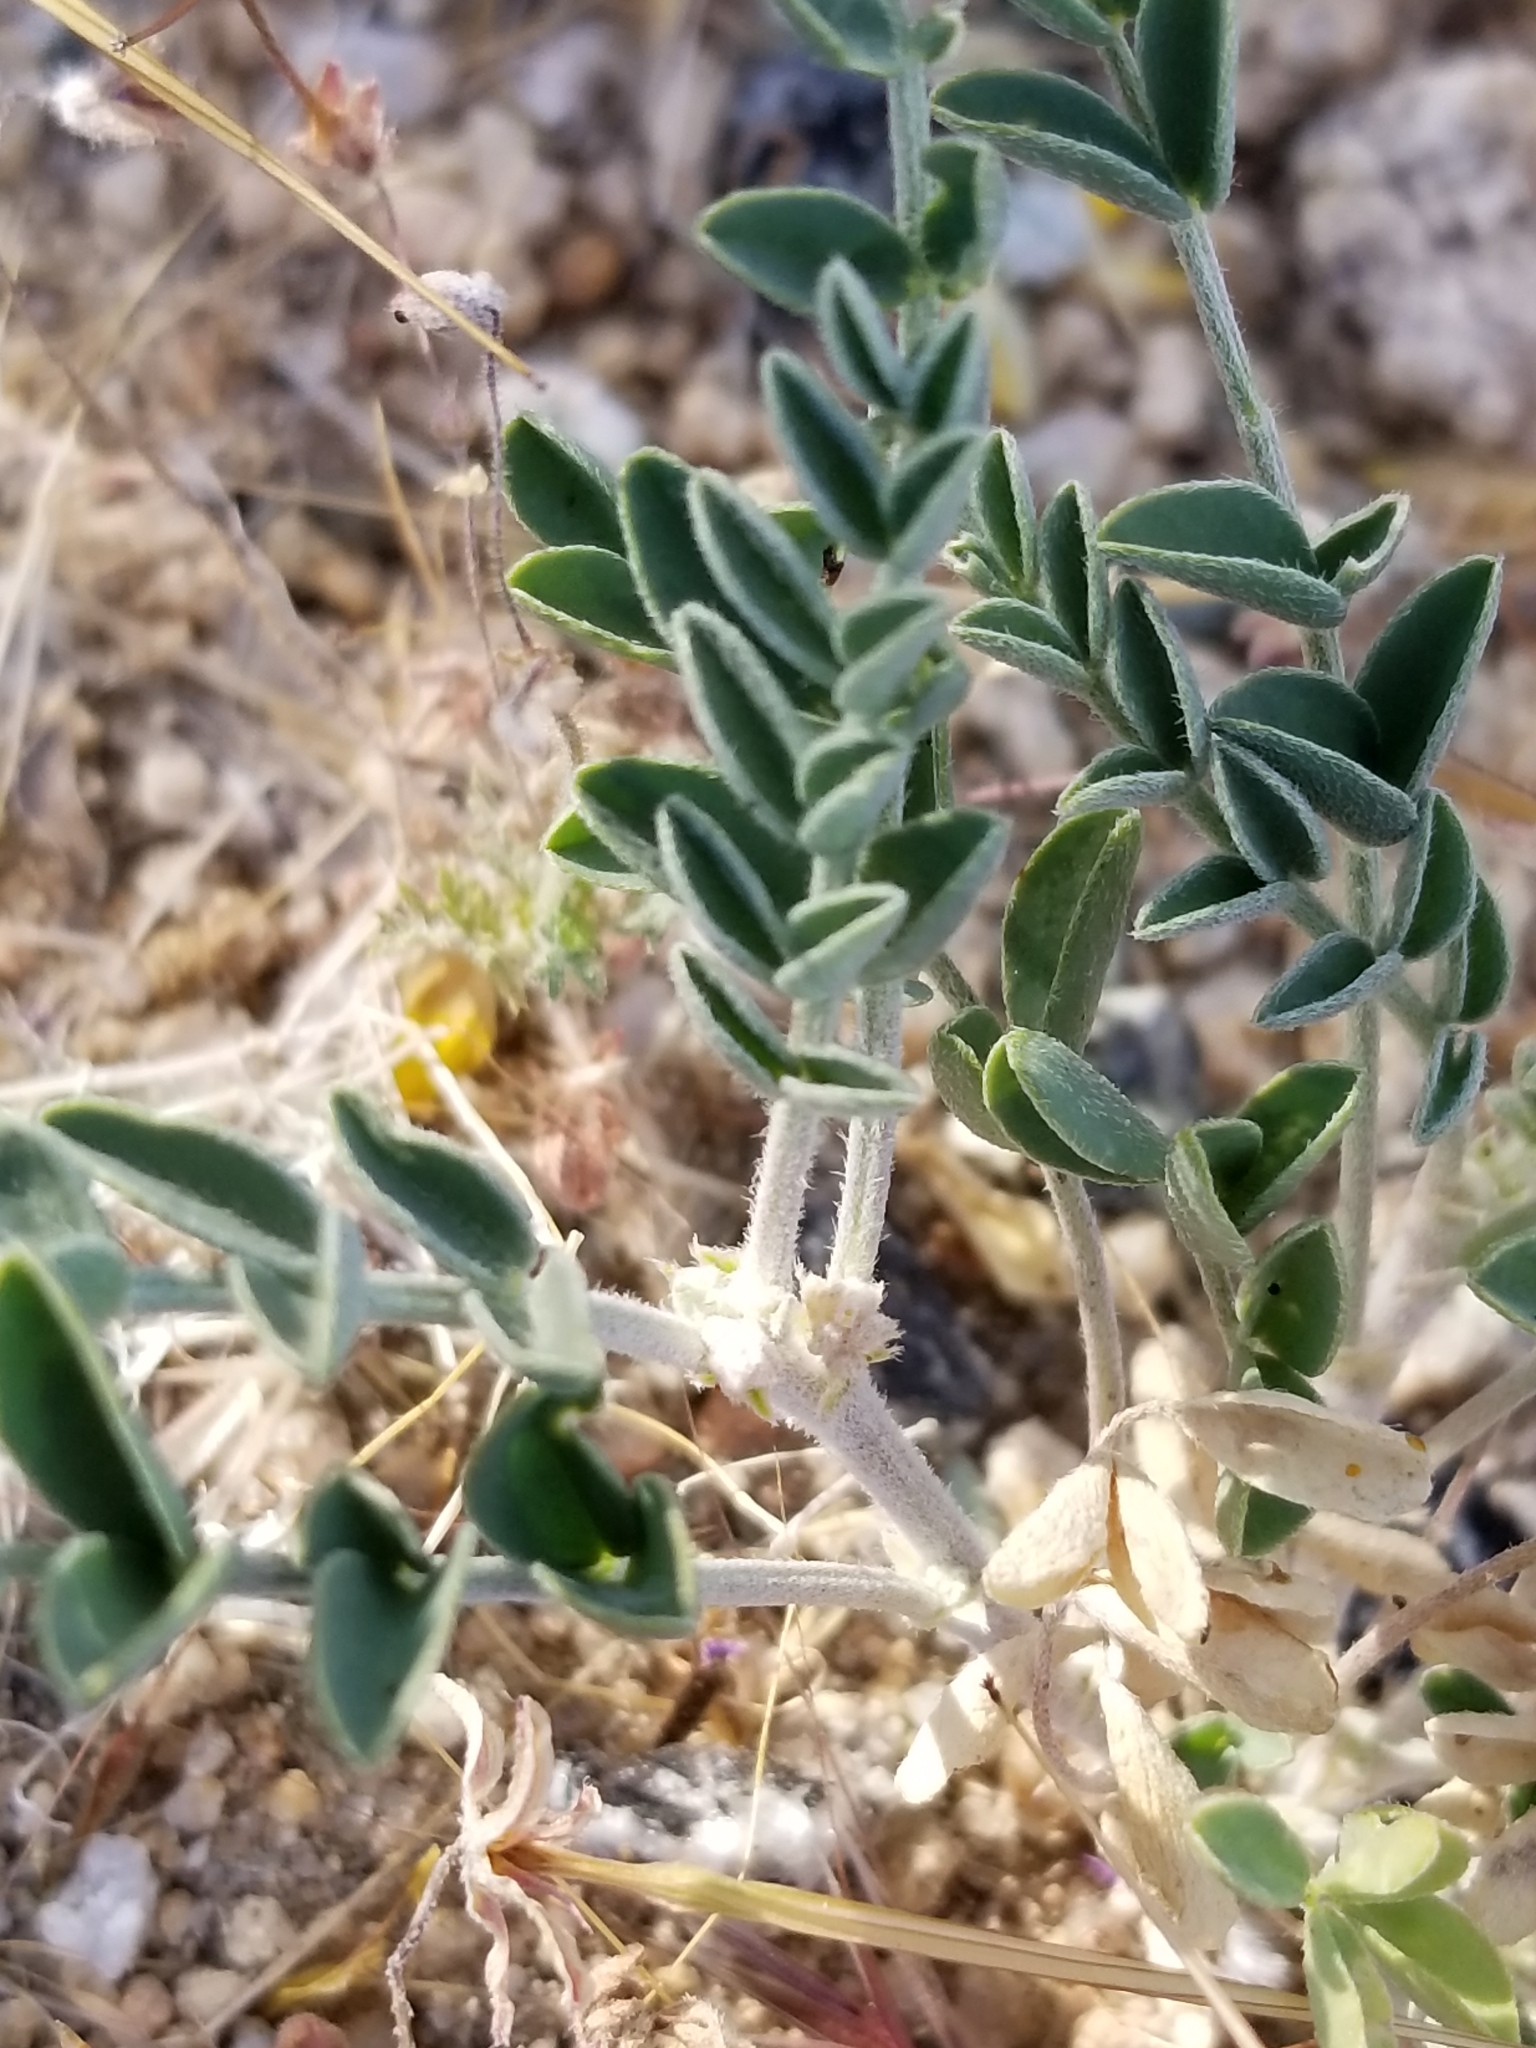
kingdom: Plantae
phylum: Tracheophyta
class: Magnoliopsida
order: Fabales
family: Fabaceae
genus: Astragalus
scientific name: Astragalus lentiginosus
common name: Freckled milkvetch
